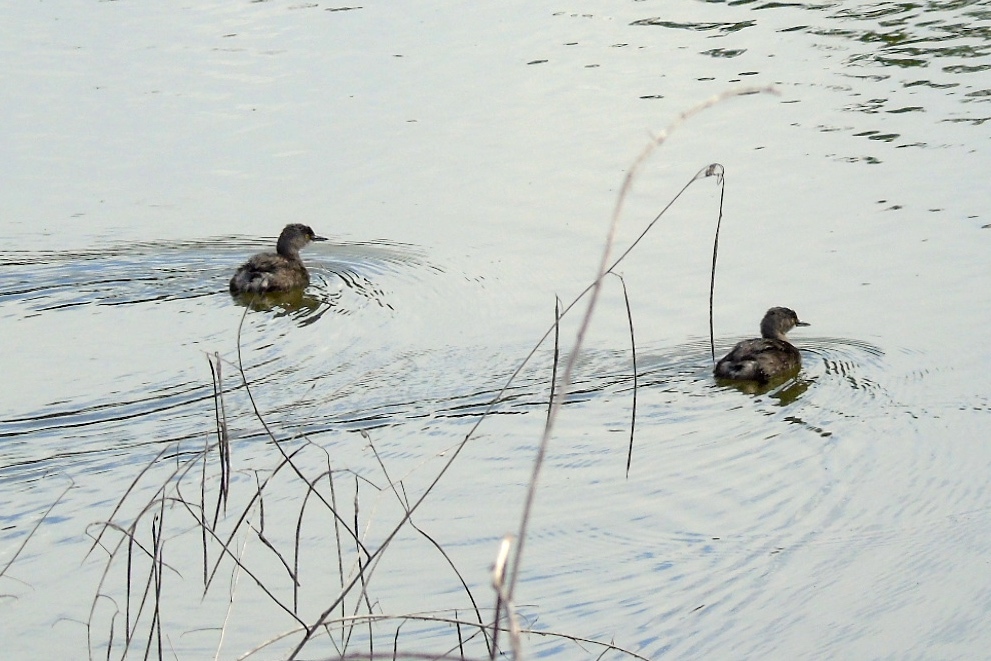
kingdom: Animalia
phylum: Chordata
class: Aves
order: Podicipediformes
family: Podicipedidae
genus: Tachybaptus
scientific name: Tachybaptus dominicus
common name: Least grebe
